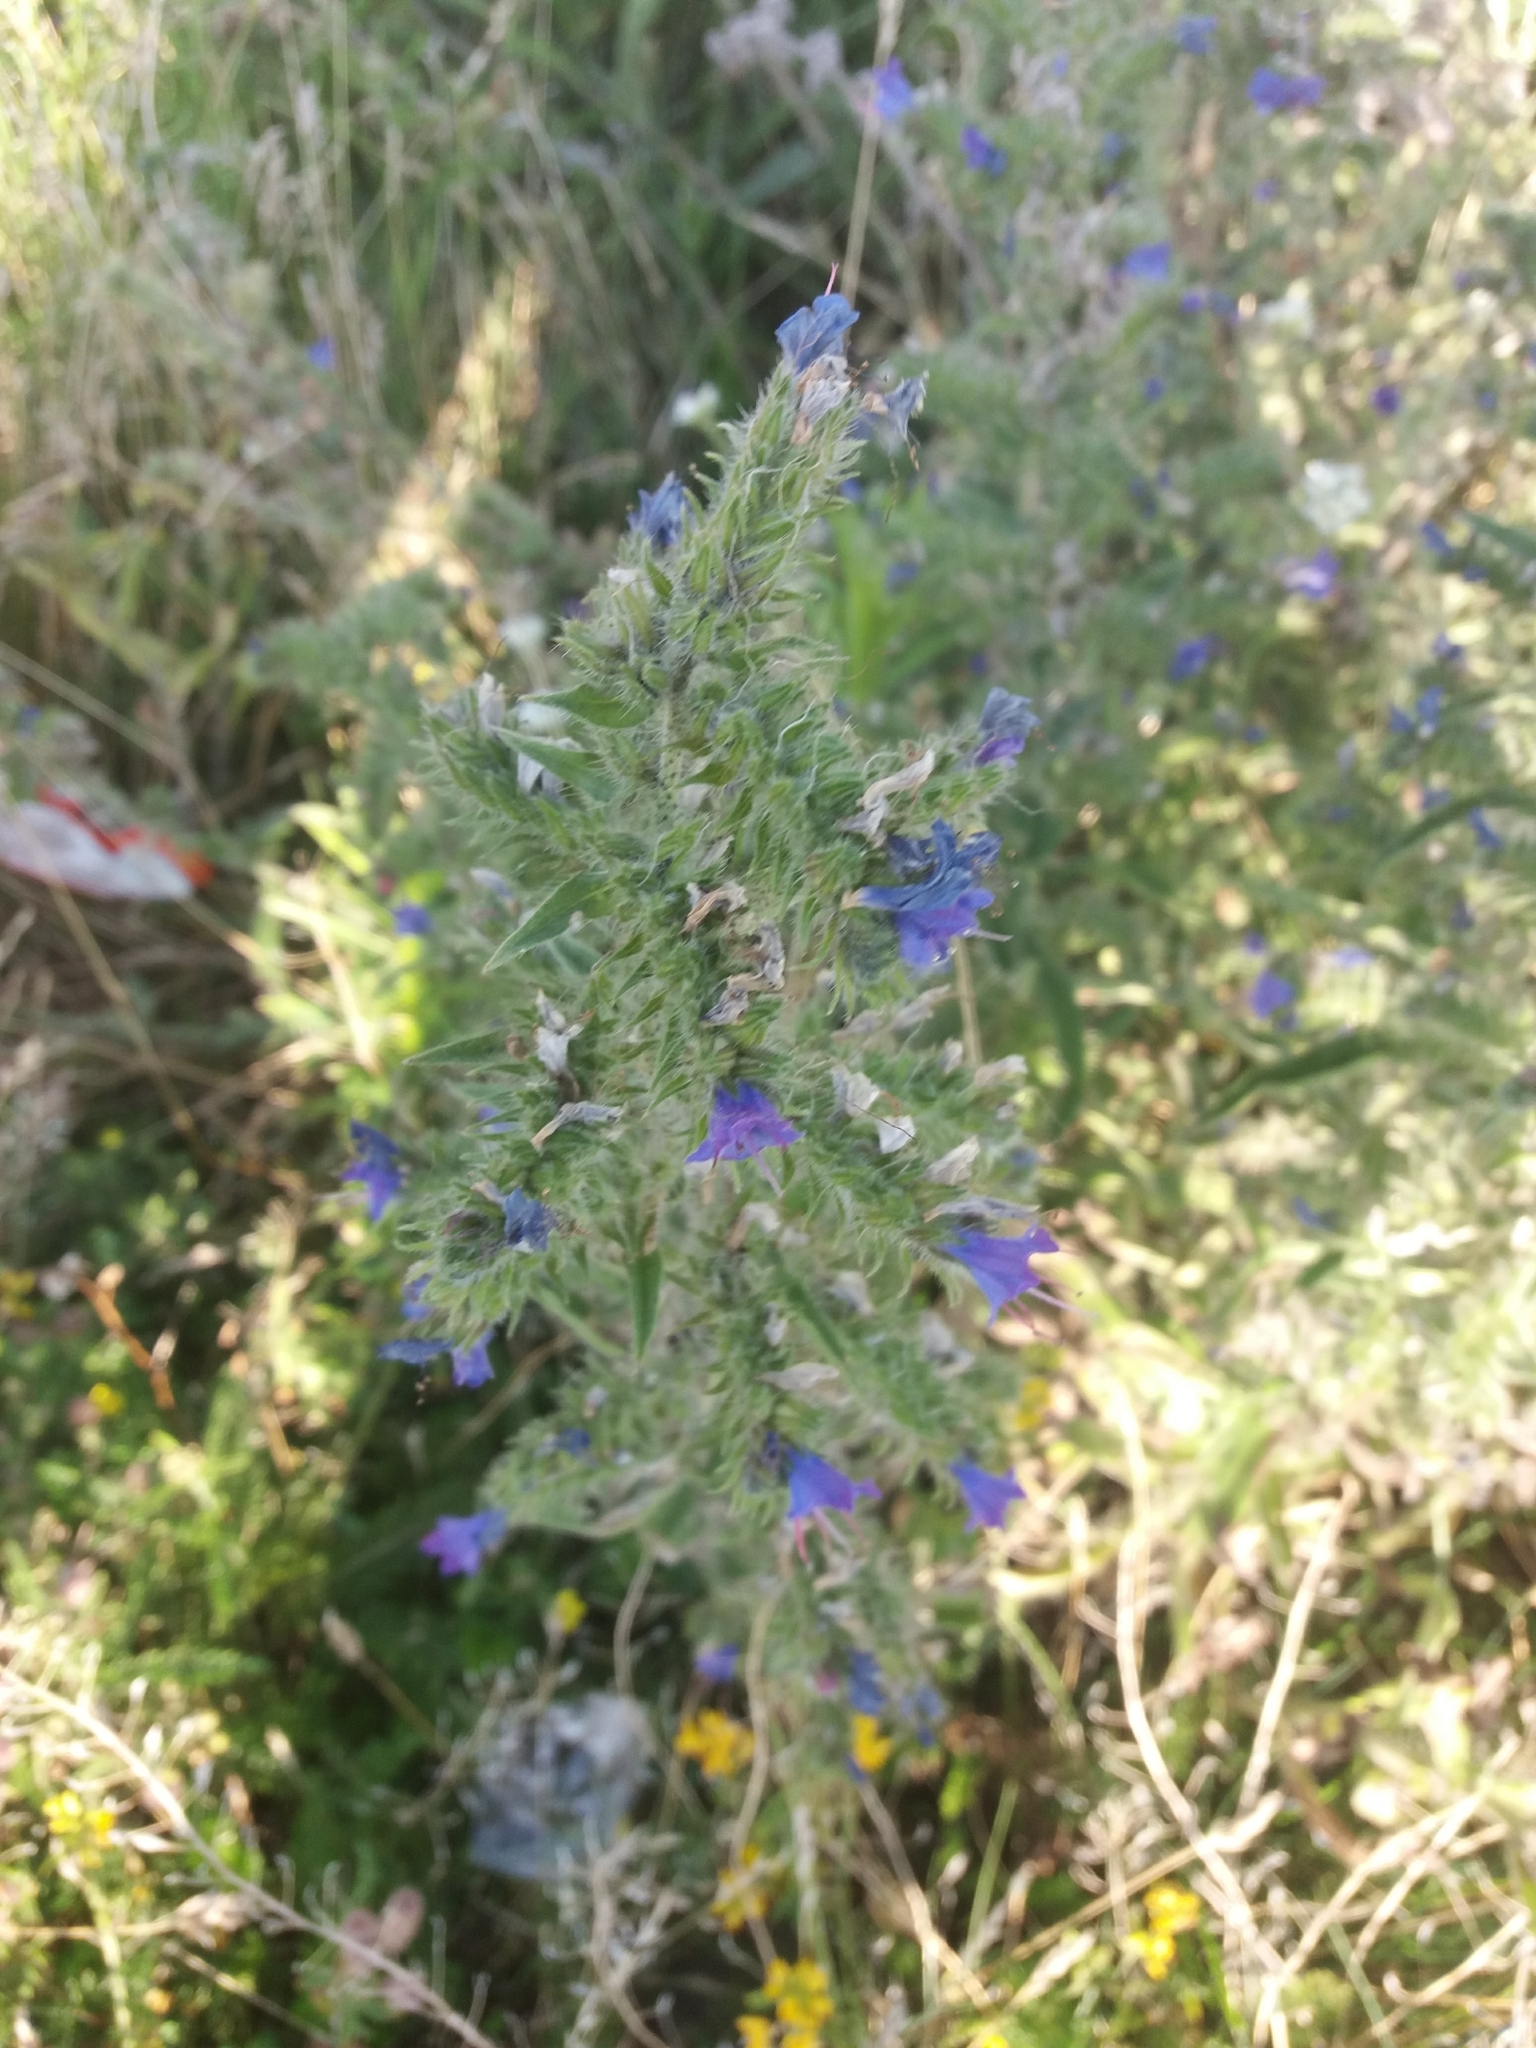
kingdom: Plantae
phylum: Tracheophyta
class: Magnoliopsida
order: Boraginales
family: Boraginaceae
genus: Echium
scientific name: Echium vulgare
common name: Common viper's bugloss
